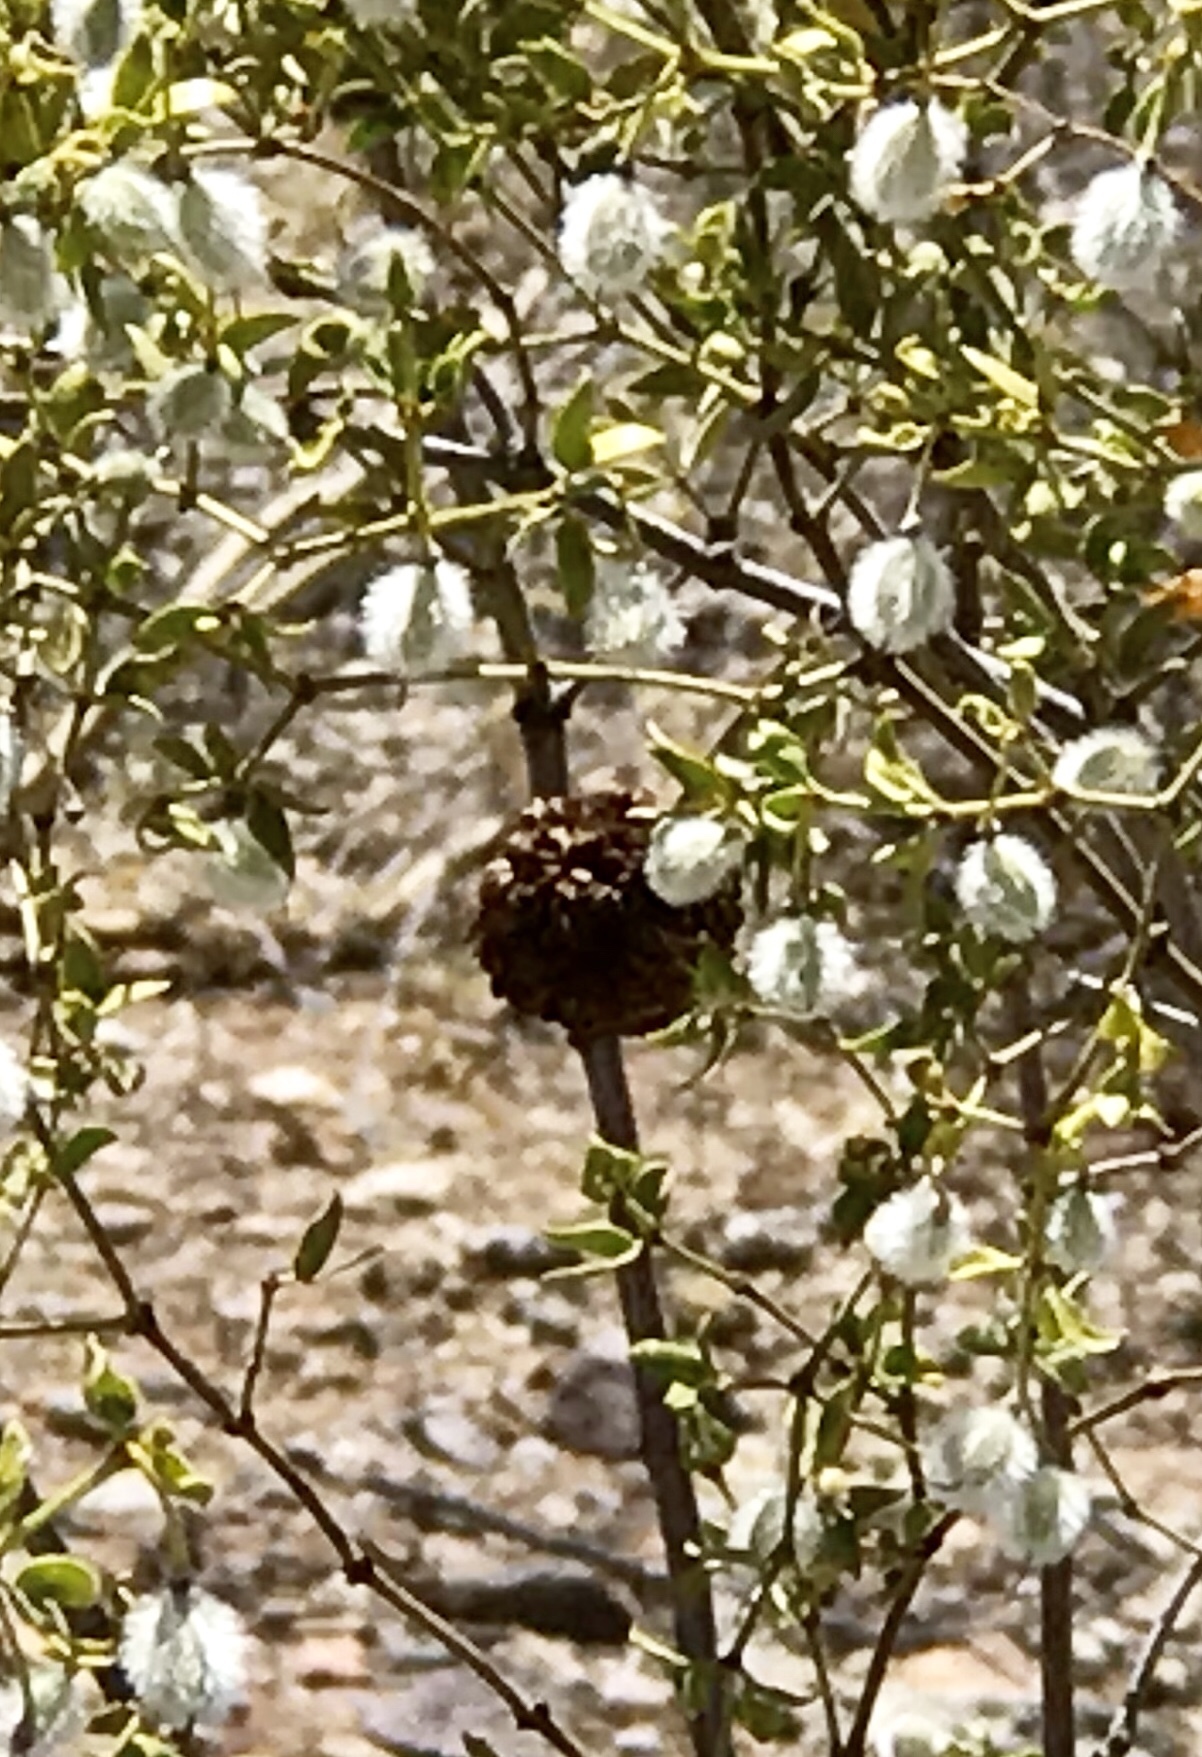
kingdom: Animalia
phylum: Arthropoda
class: Insecta
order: Diptera
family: Cecidomyiidae
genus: Asphondylia
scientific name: Asphondylia auripila
